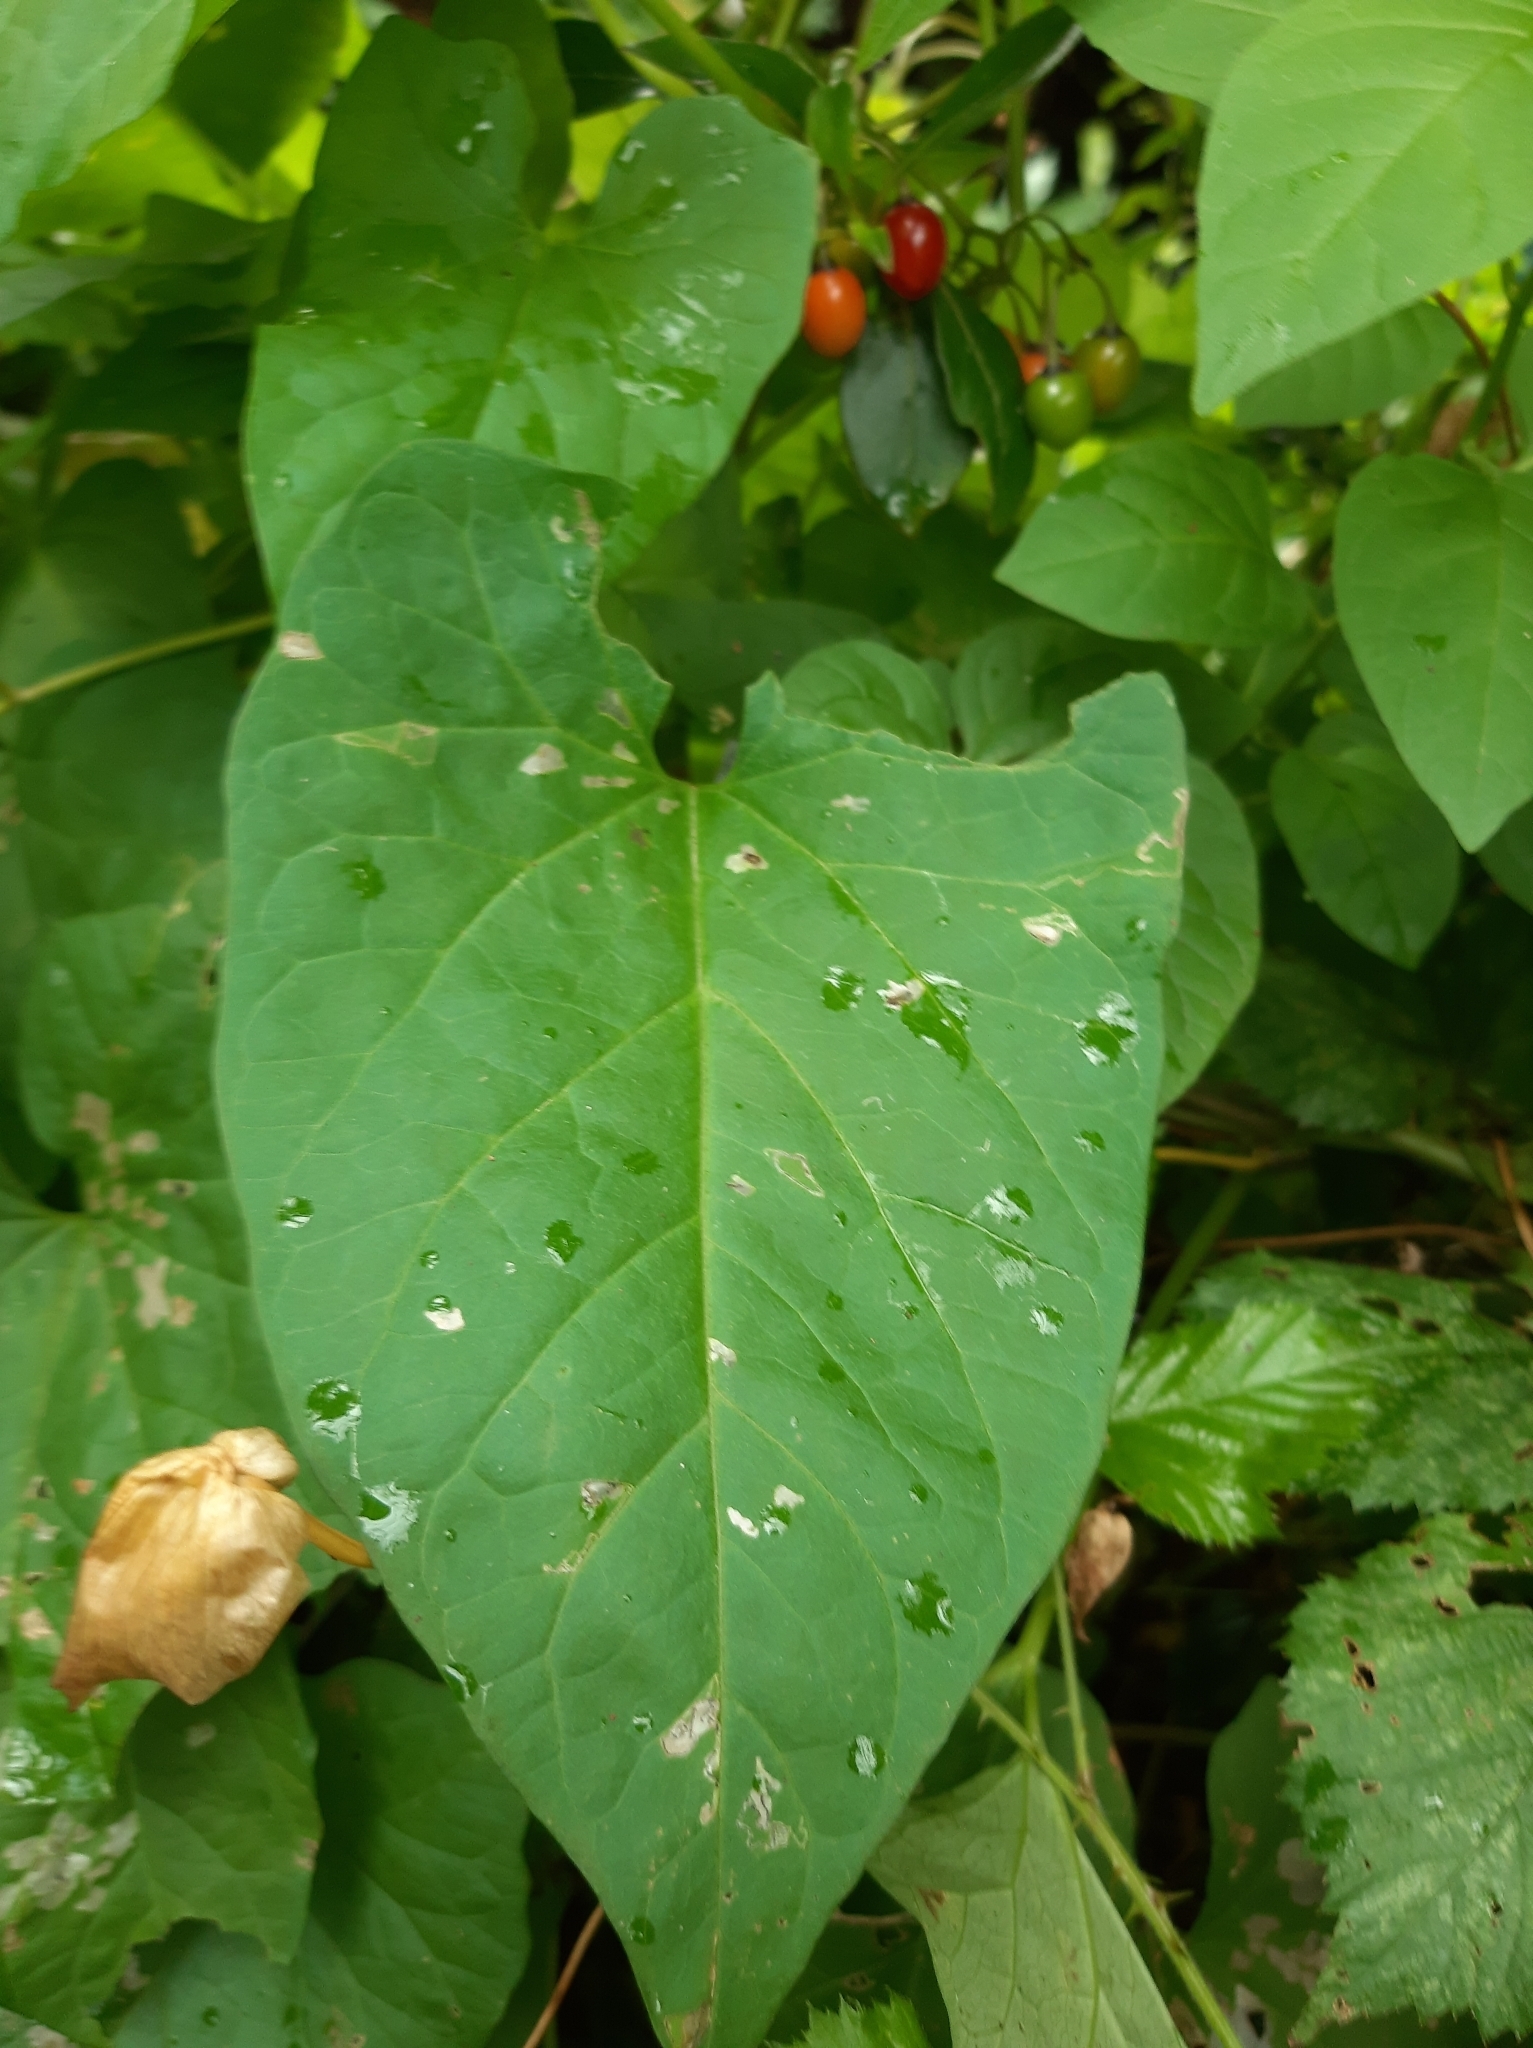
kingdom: Plantae
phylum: Tracheophyta
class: Magnoliopsida
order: Solanales
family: Convolvulaceae
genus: Calystegia
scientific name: Calystegia silvatica
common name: Large bindweed
